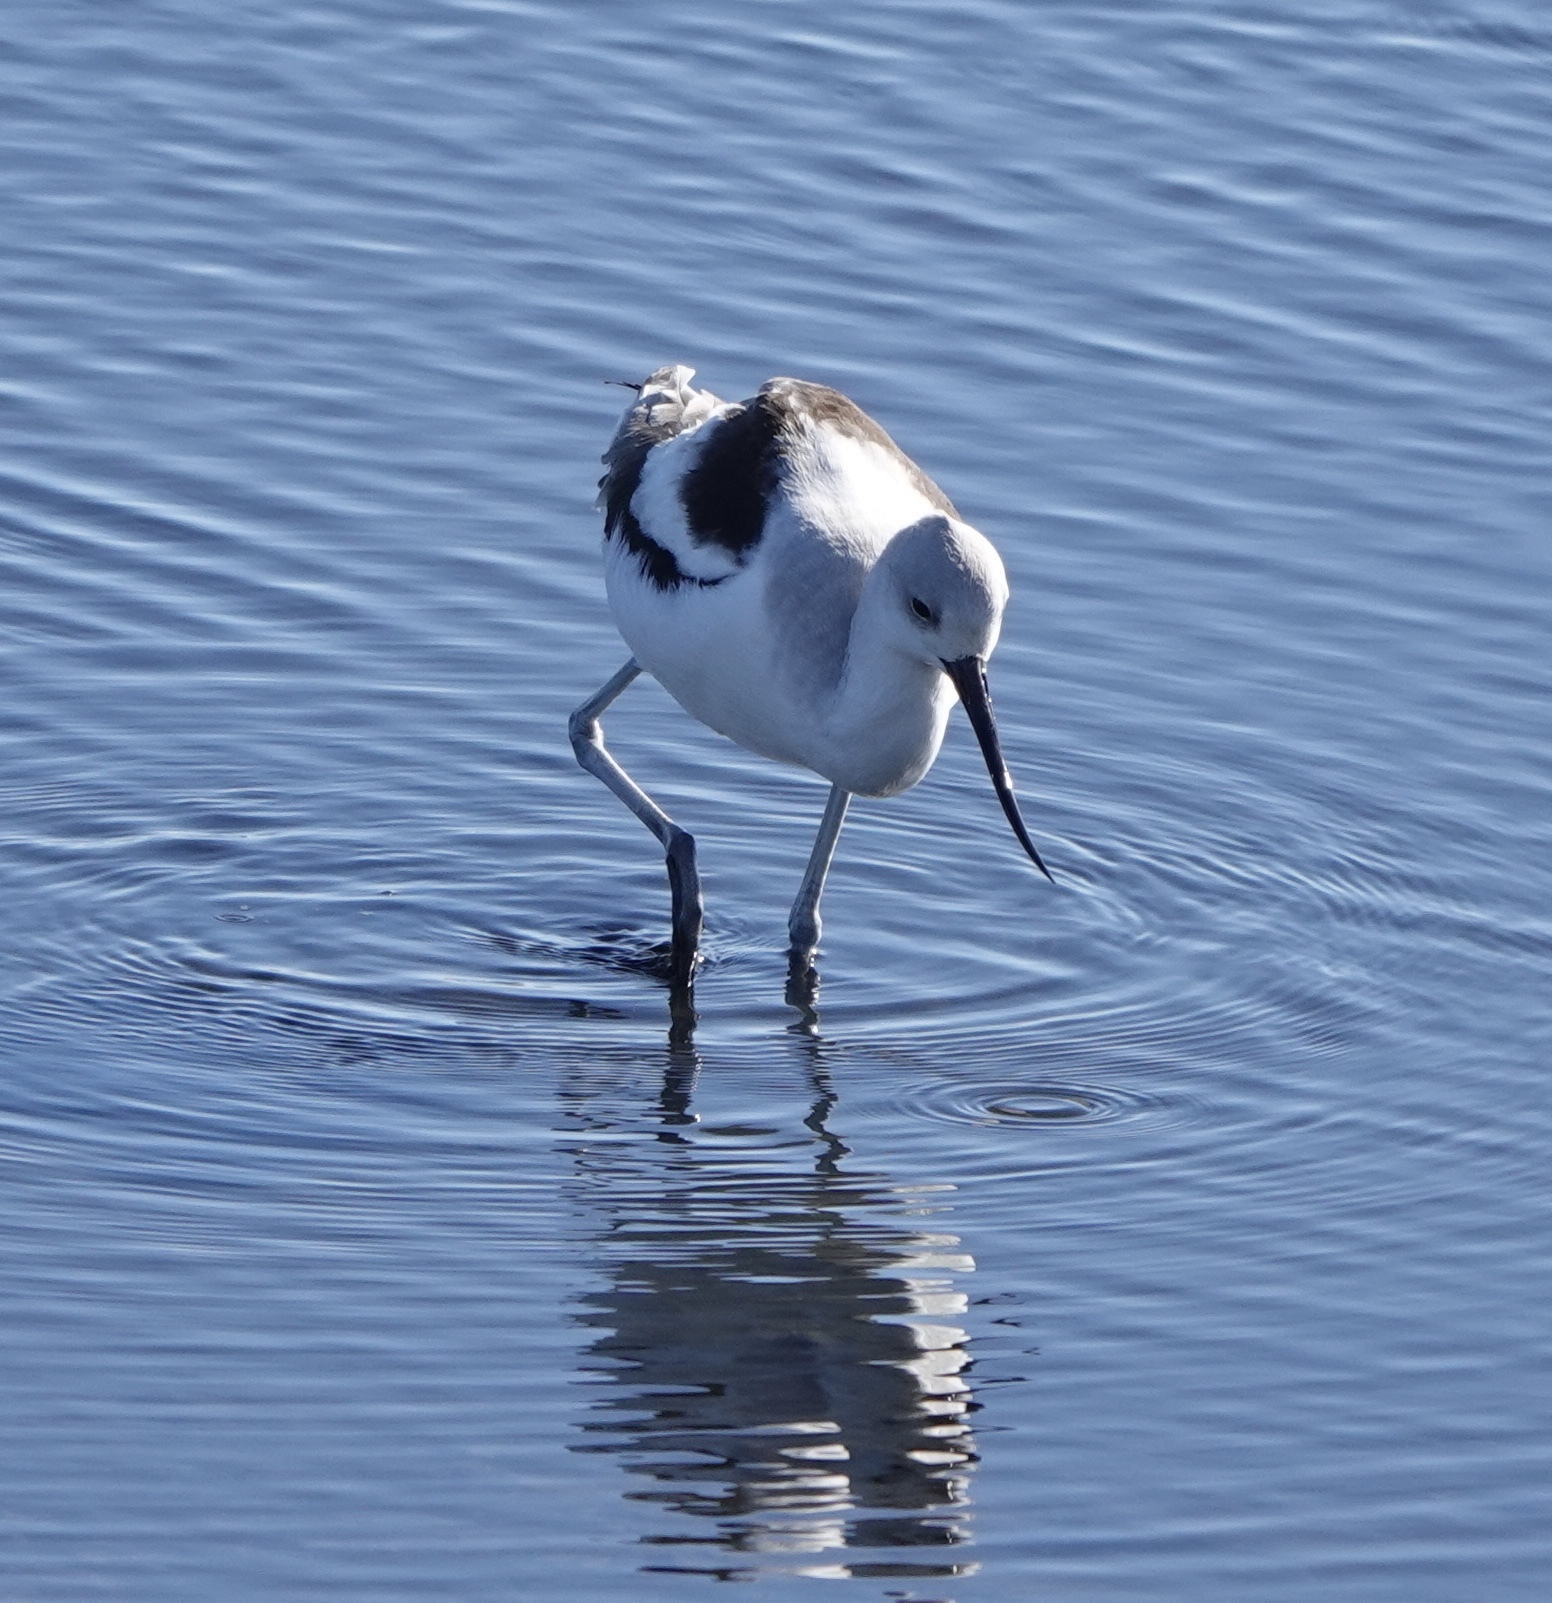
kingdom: Animalia
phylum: Chordata
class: Aves
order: Charadriiformes
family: Recurvirostridae
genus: Recurvirostra
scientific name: Recurvirostra americana
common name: American avocet
